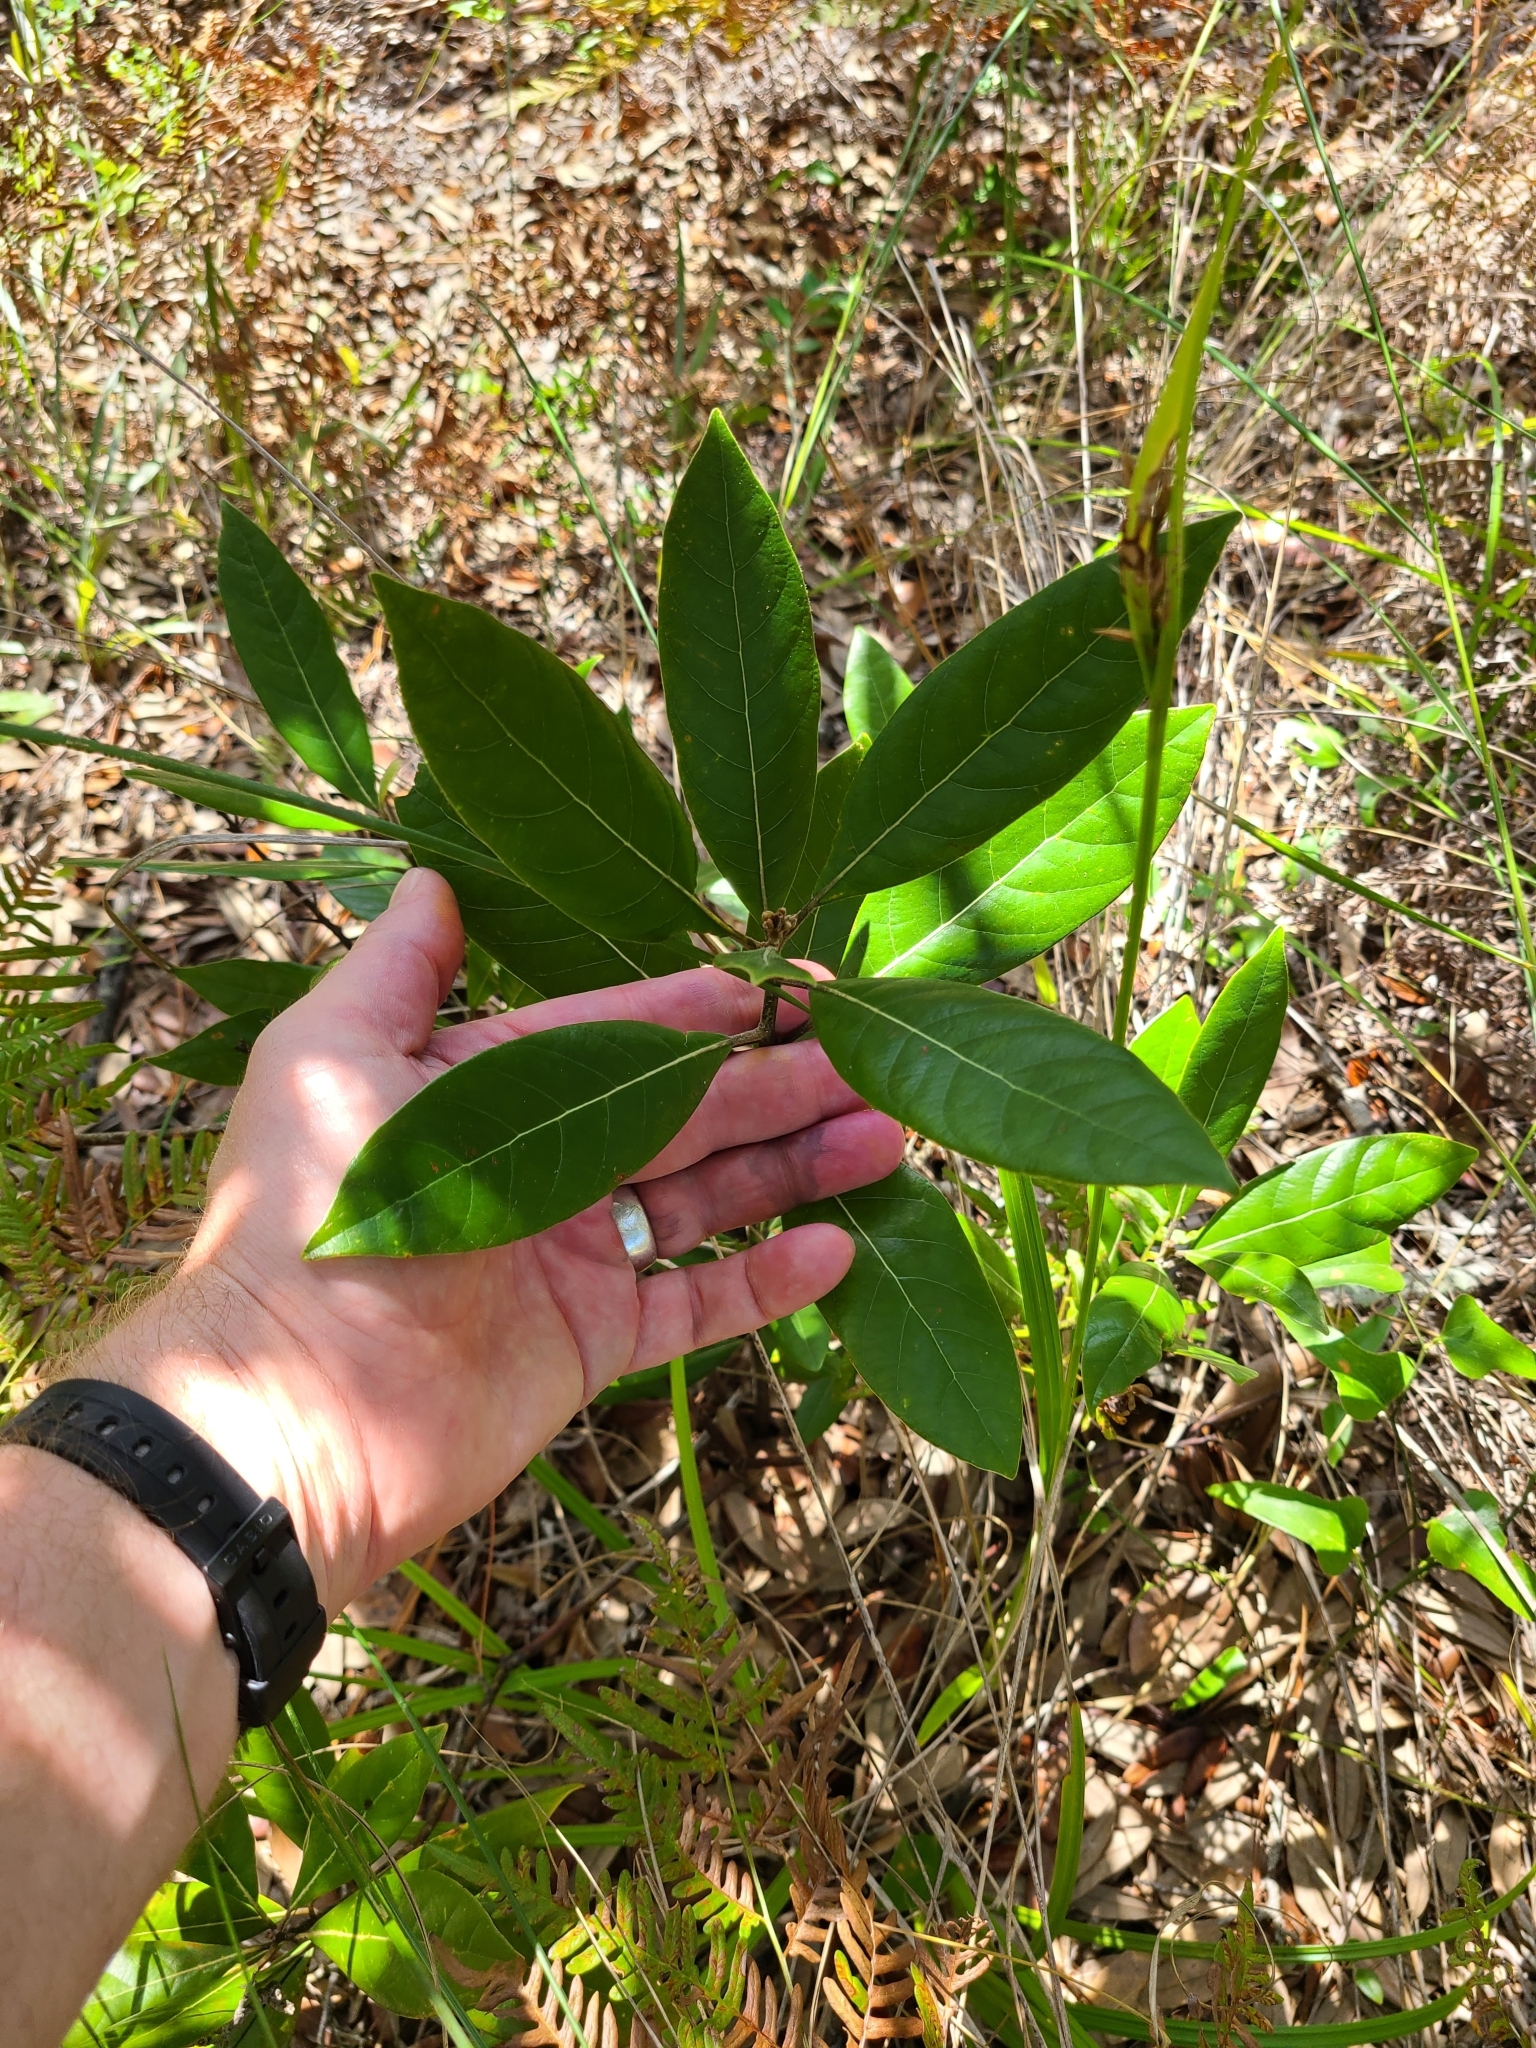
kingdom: Plantae
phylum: Tracheophyta
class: Magnoliopsida
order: Laurales
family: Lauraceae
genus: Persea
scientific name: Persea palustris
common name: Swampbay
